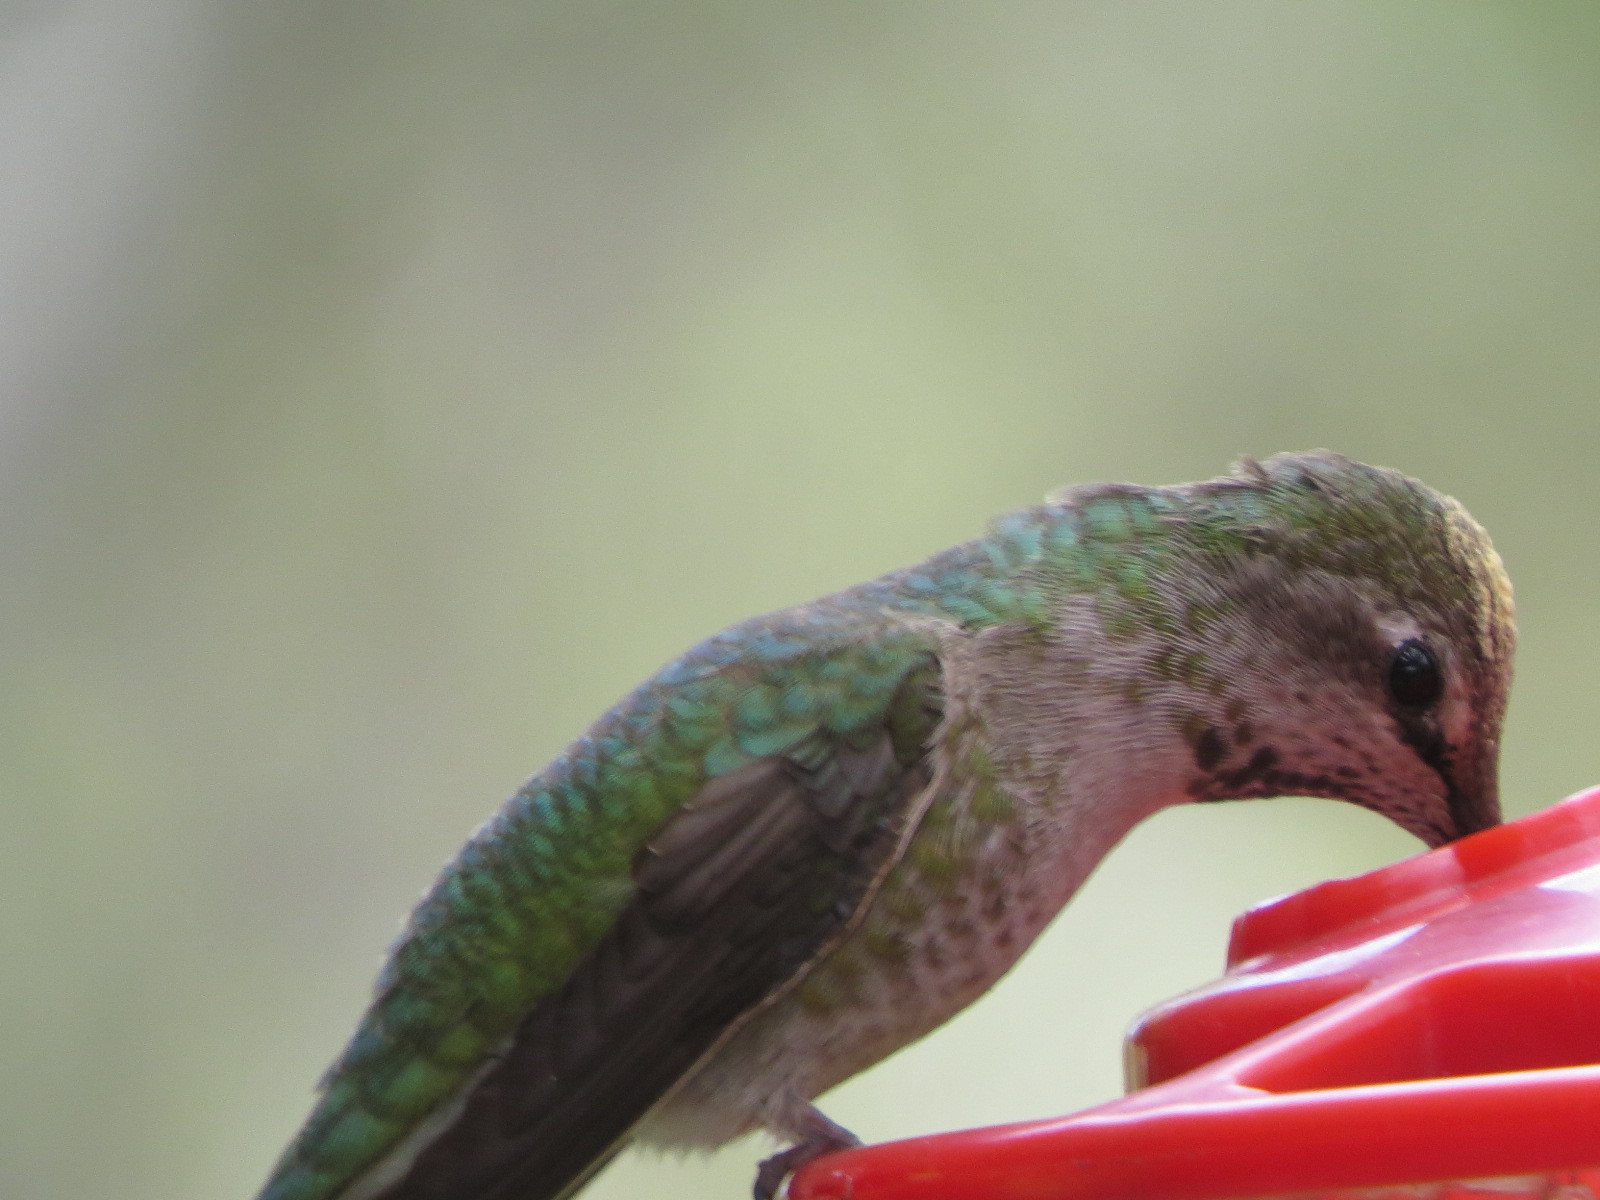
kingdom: Animalia
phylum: Chordata
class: Aves
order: Apodiformes
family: Trochilidae
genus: Calypte
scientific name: Calypte anna
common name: Anna's hummingbird
